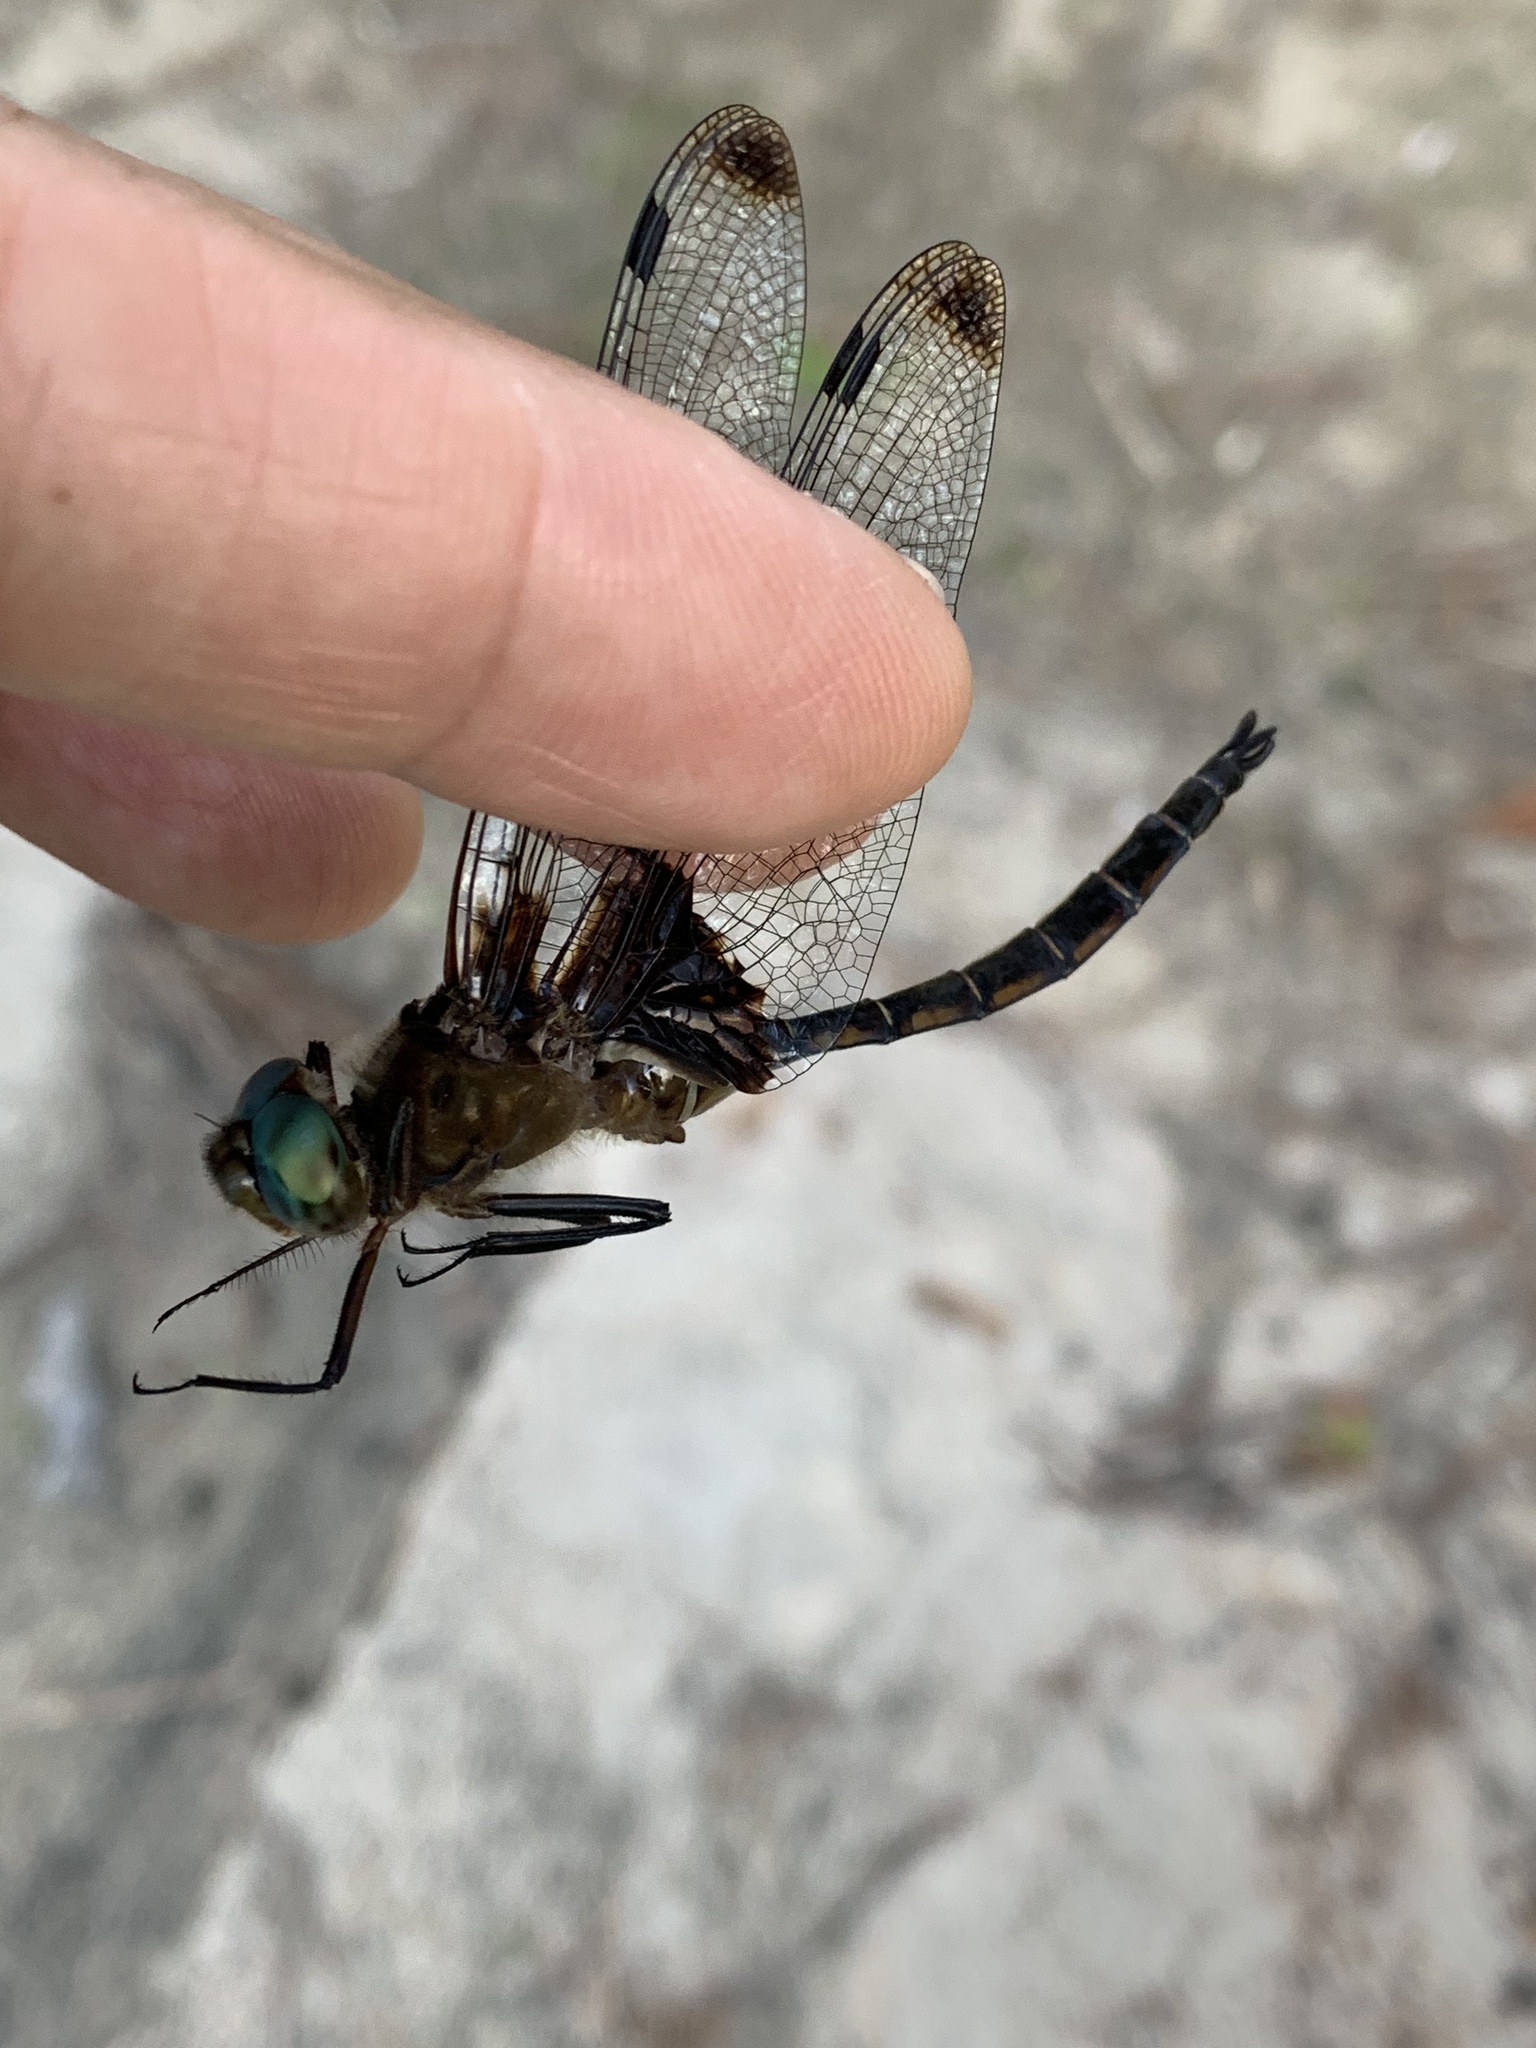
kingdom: Animalia
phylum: Arthropoda
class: Insecta
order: Odonata
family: Corduliidae
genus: Epitheca
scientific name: Epitheca princeps
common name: Prince baskettail
